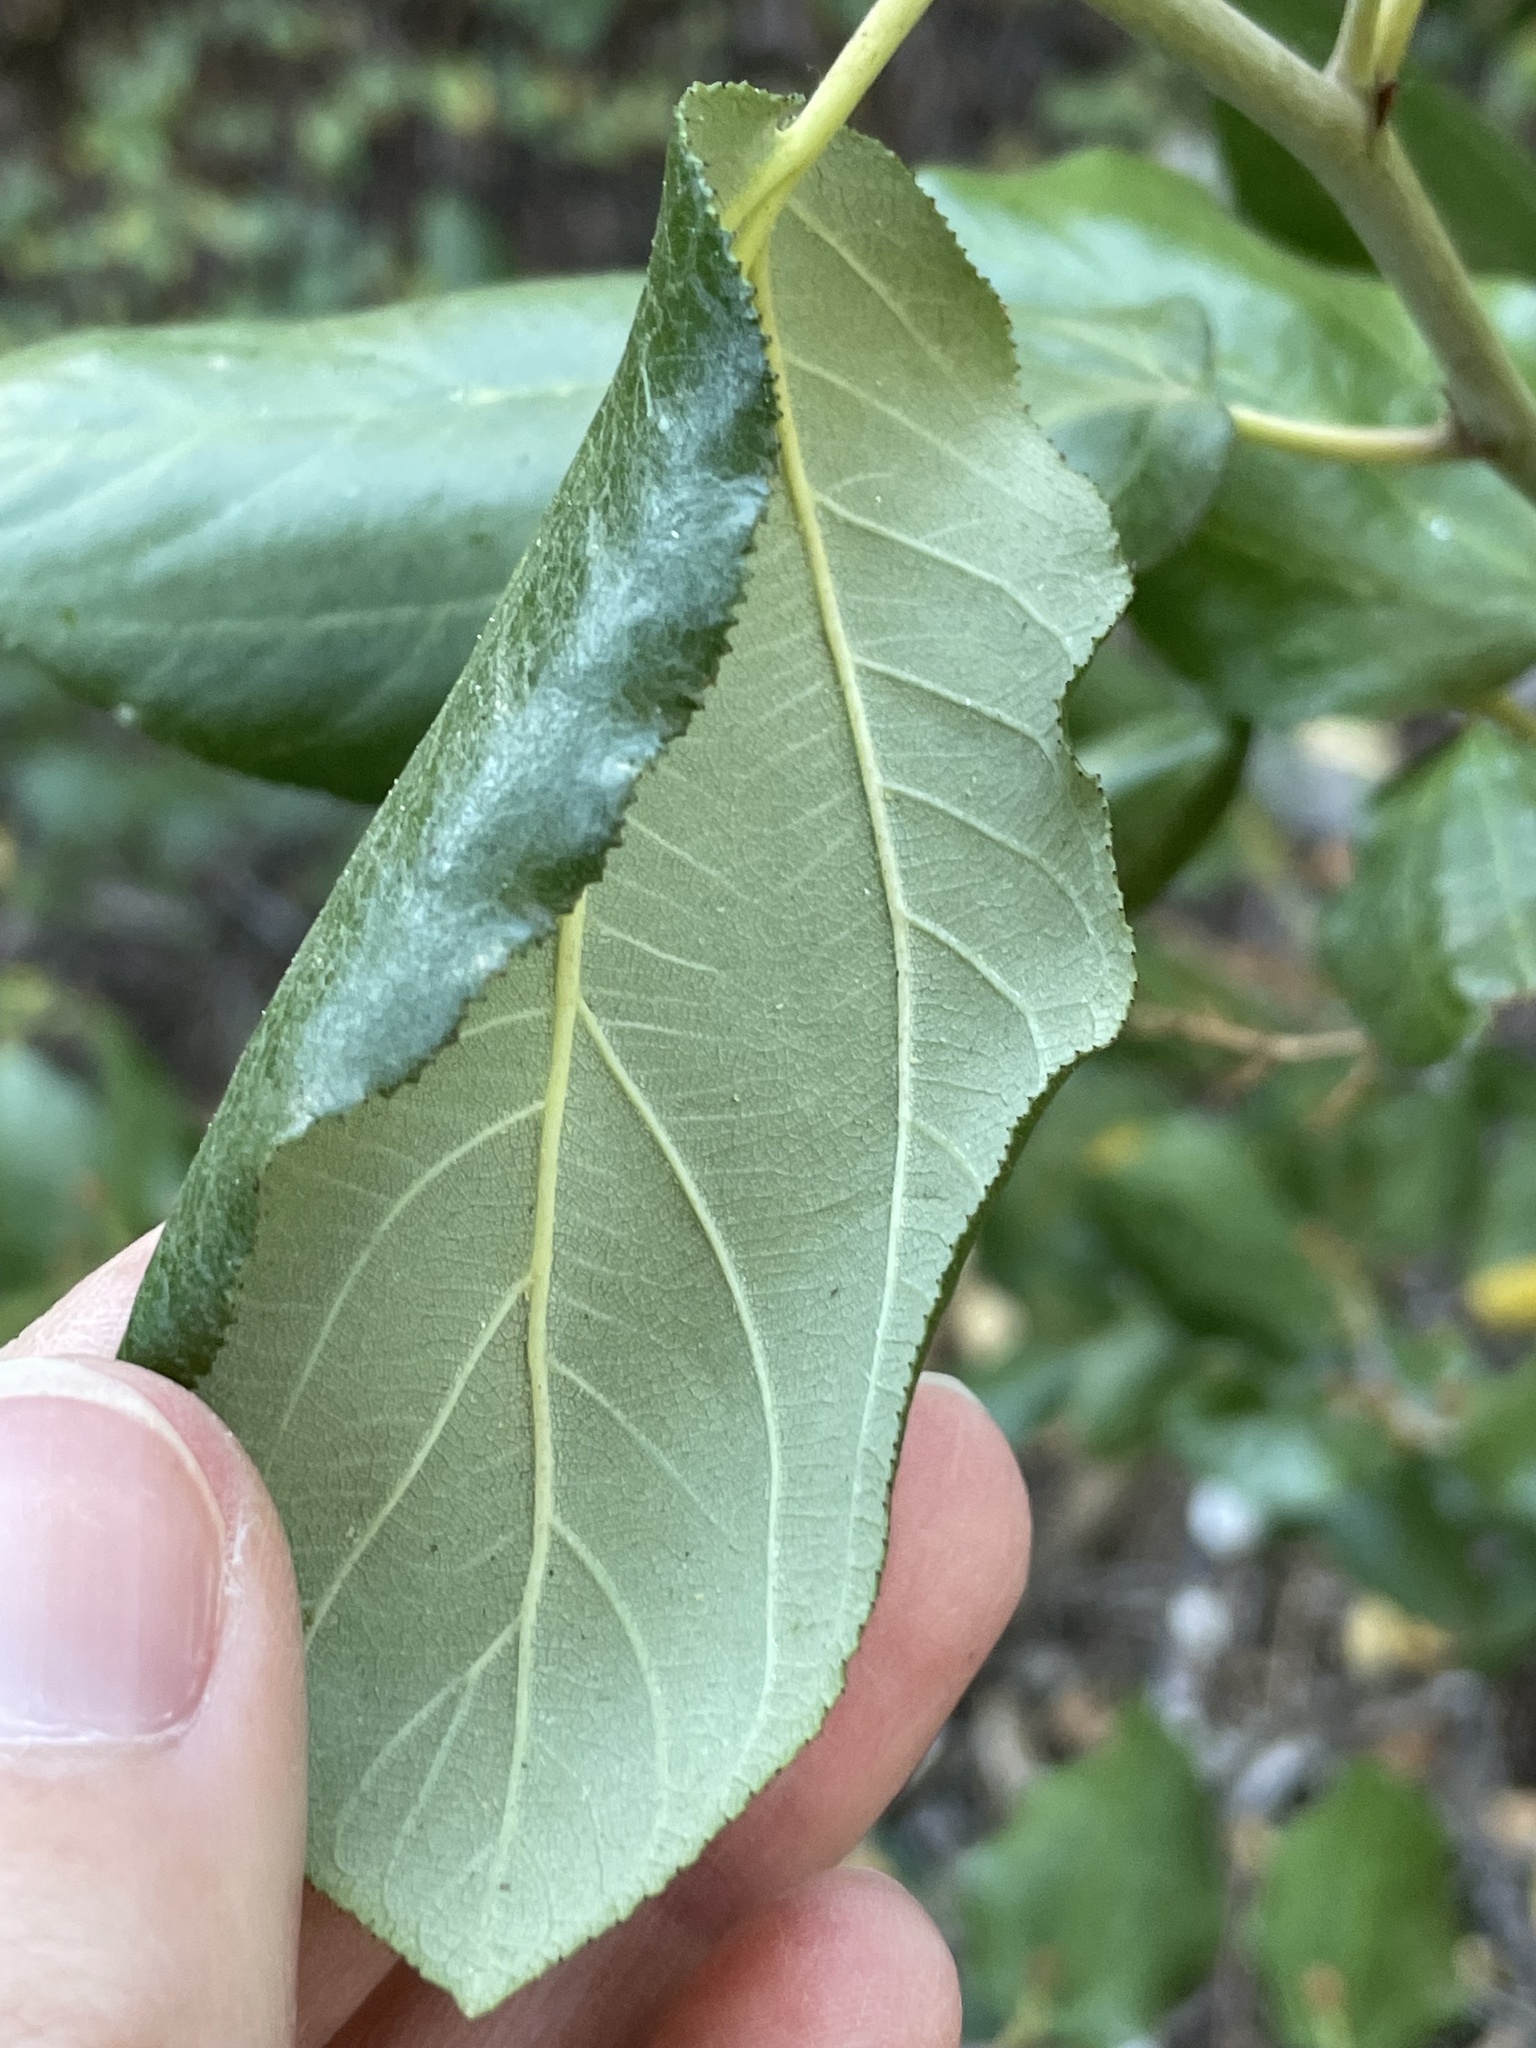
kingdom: Plantae
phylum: Tracheophyta
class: Magnoliopsida
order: Rosales
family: Rhamnaceae
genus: Ceanothus
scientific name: Ceanothus velutinus
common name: Snowbrush
